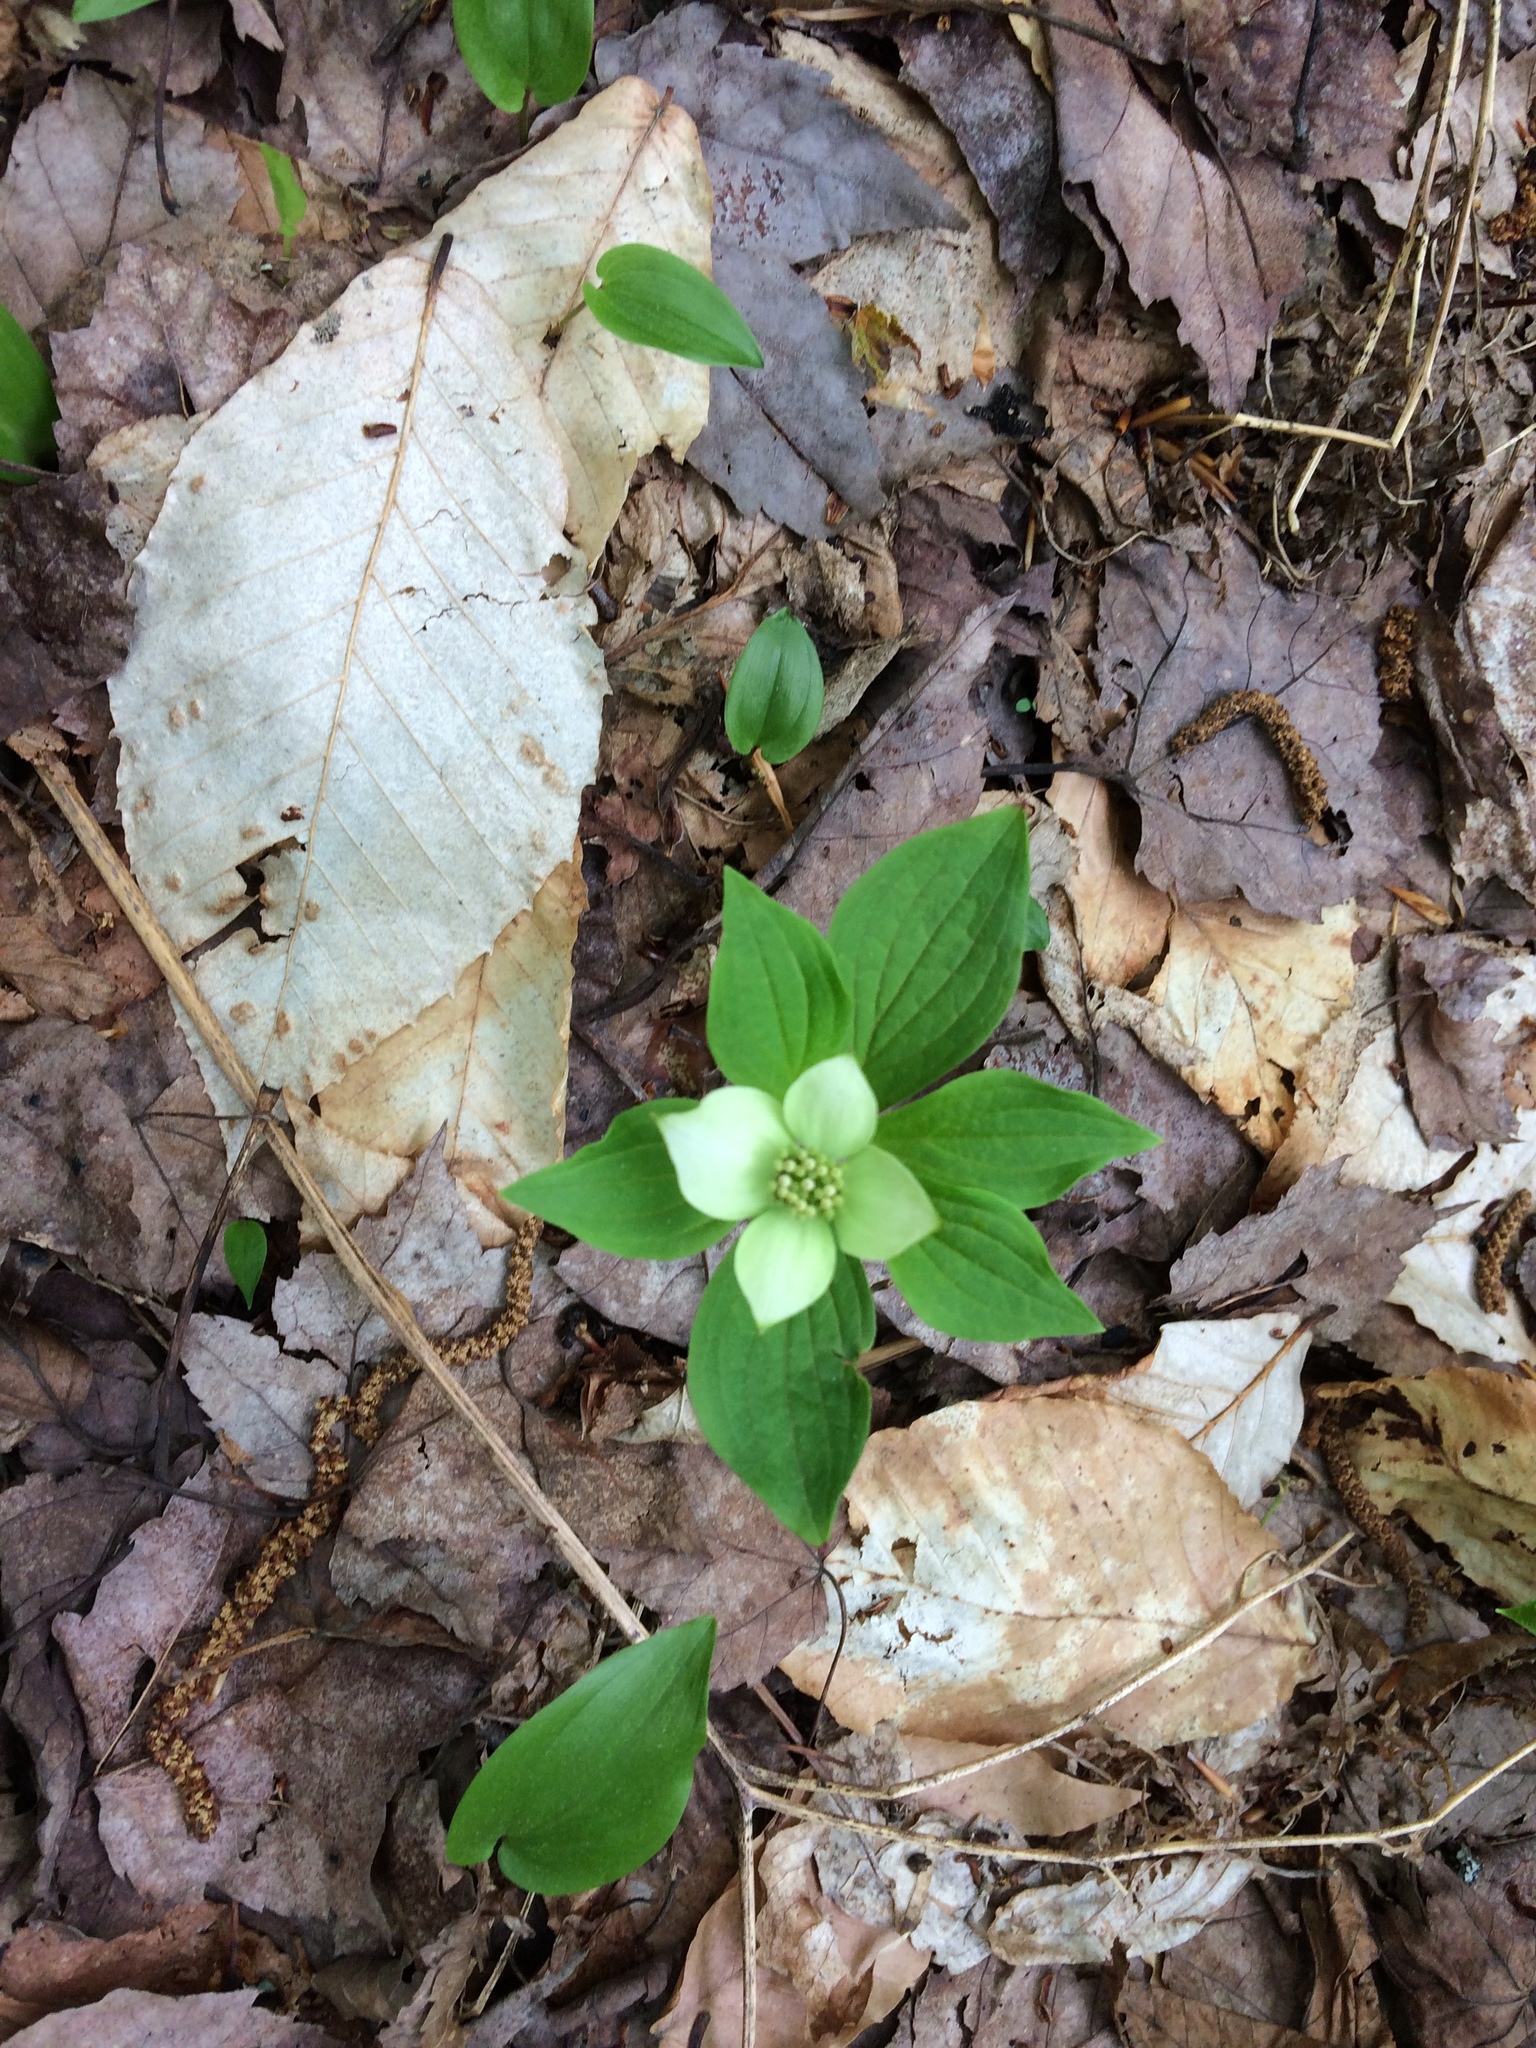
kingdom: Plantae
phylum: Tracheophyta
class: Magnoliopsida
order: Cornales
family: Cornaceae
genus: Cornus
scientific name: Cornus canadensis
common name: Creeping dogwood
